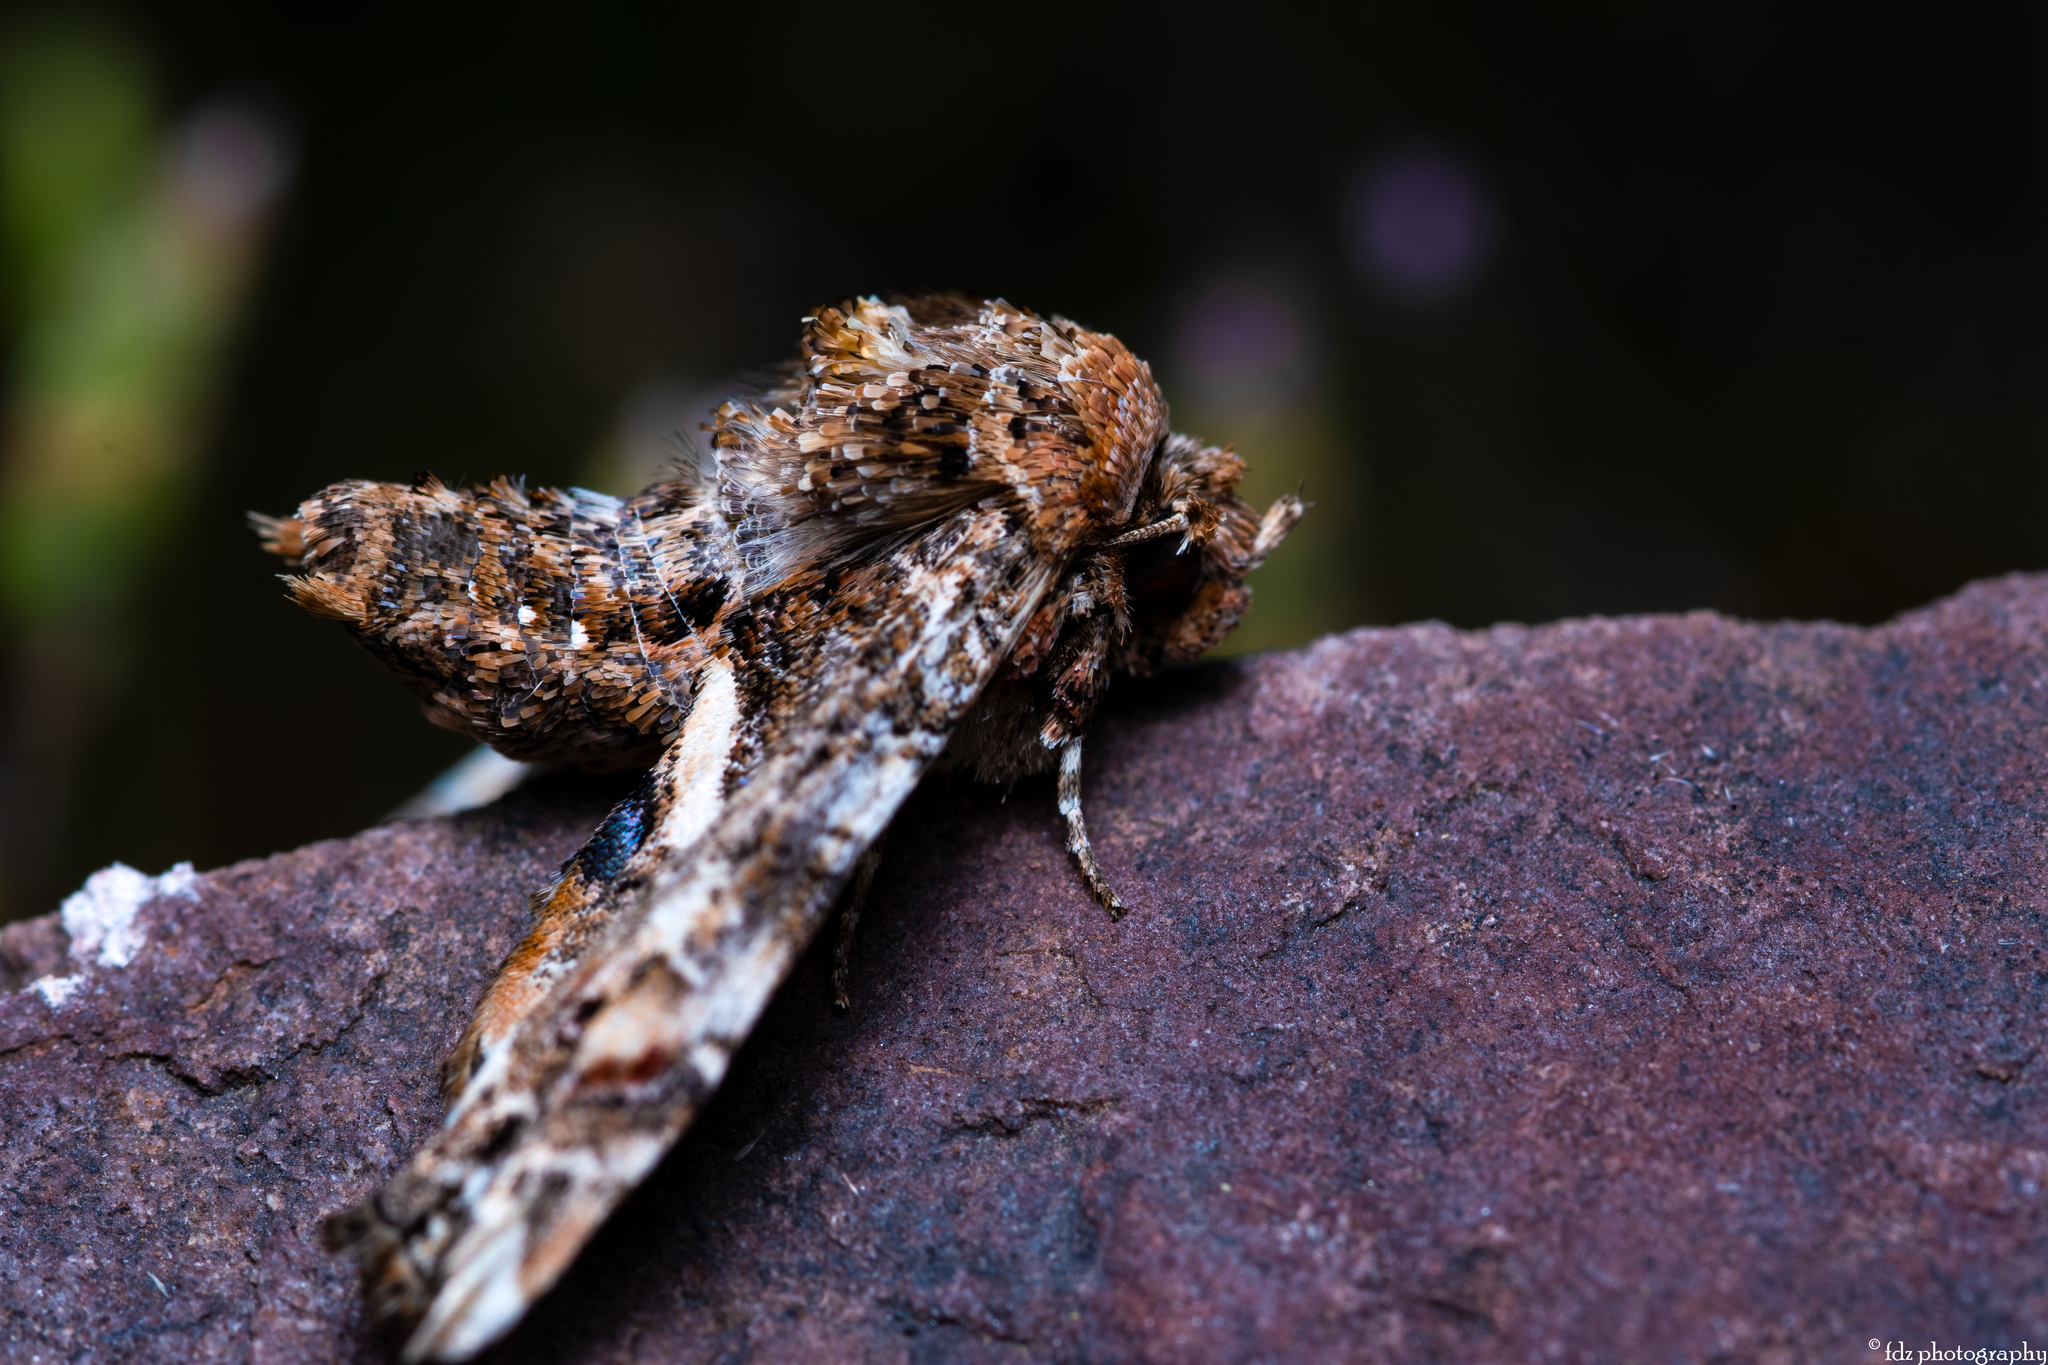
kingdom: Animalia
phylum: Arthropoda
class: Insecta
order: Lepidoptera
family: Euteliidae
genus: Eutelia
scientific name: Eutelia adulatrix
